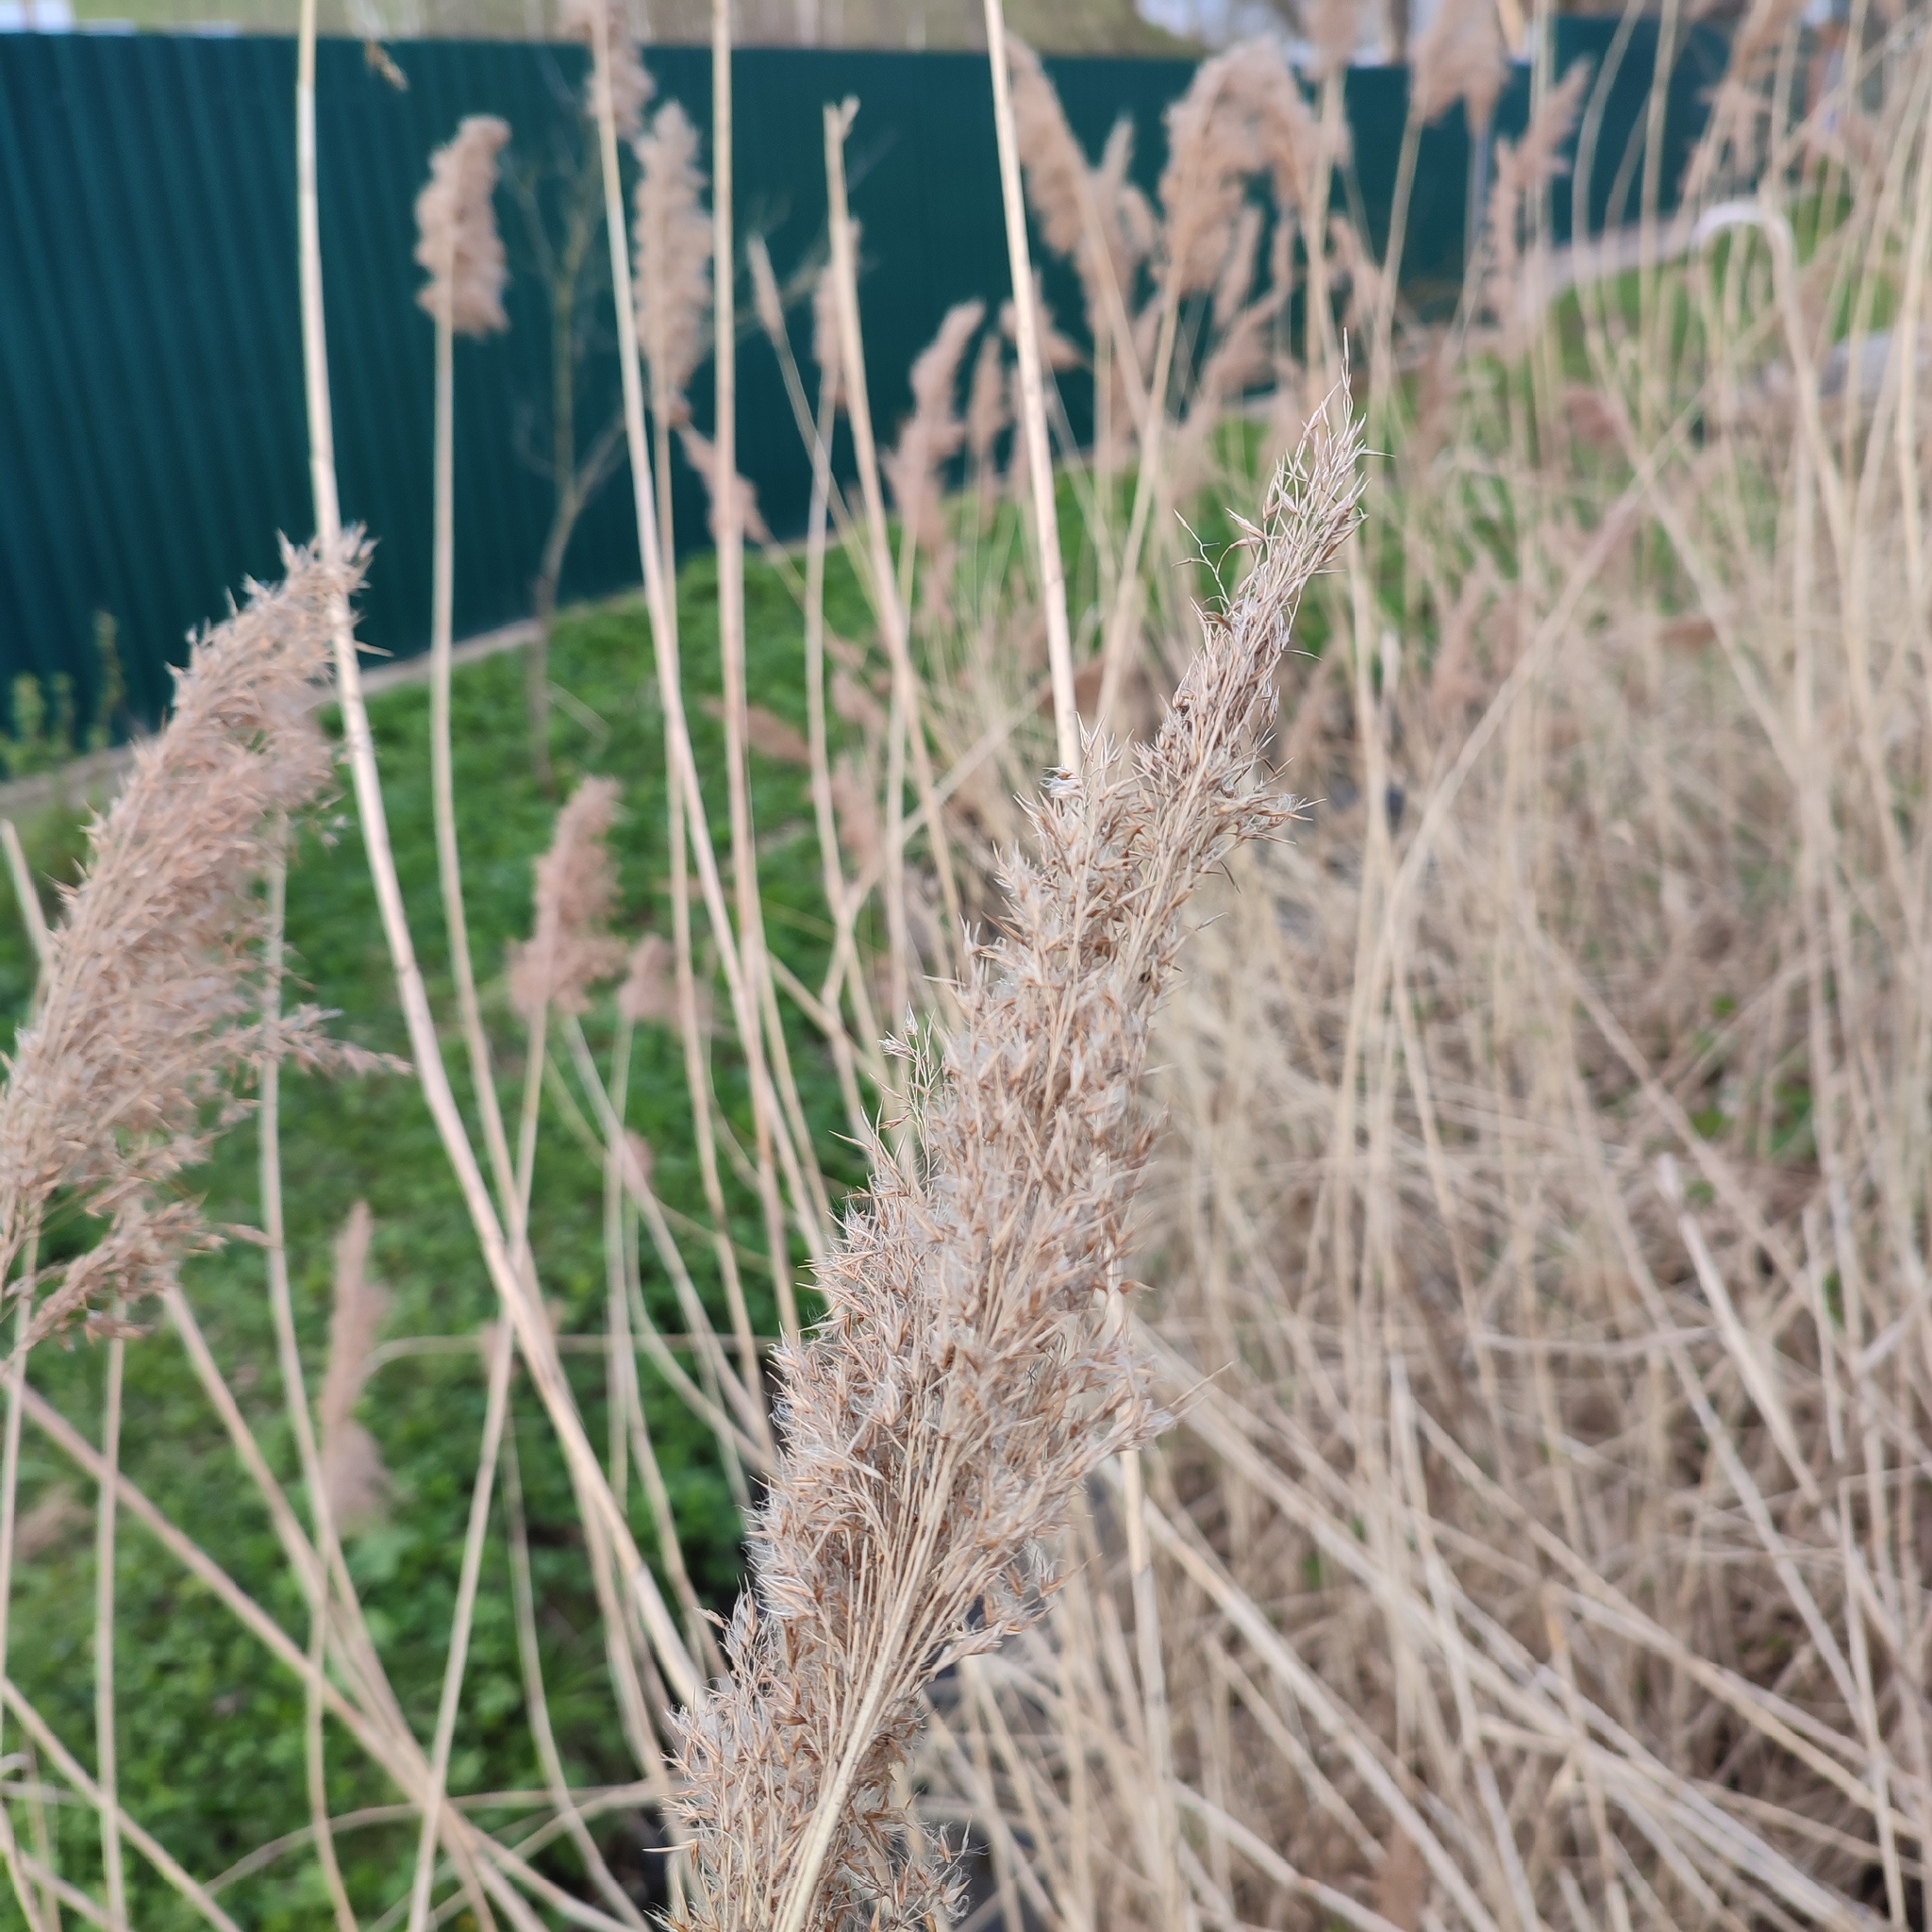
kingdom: Plantae
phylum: Tracheophyta
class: Liliopsida
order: Poales
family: Poaceae
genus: Phragmites
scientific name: Phragmites australis
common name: Common reed
